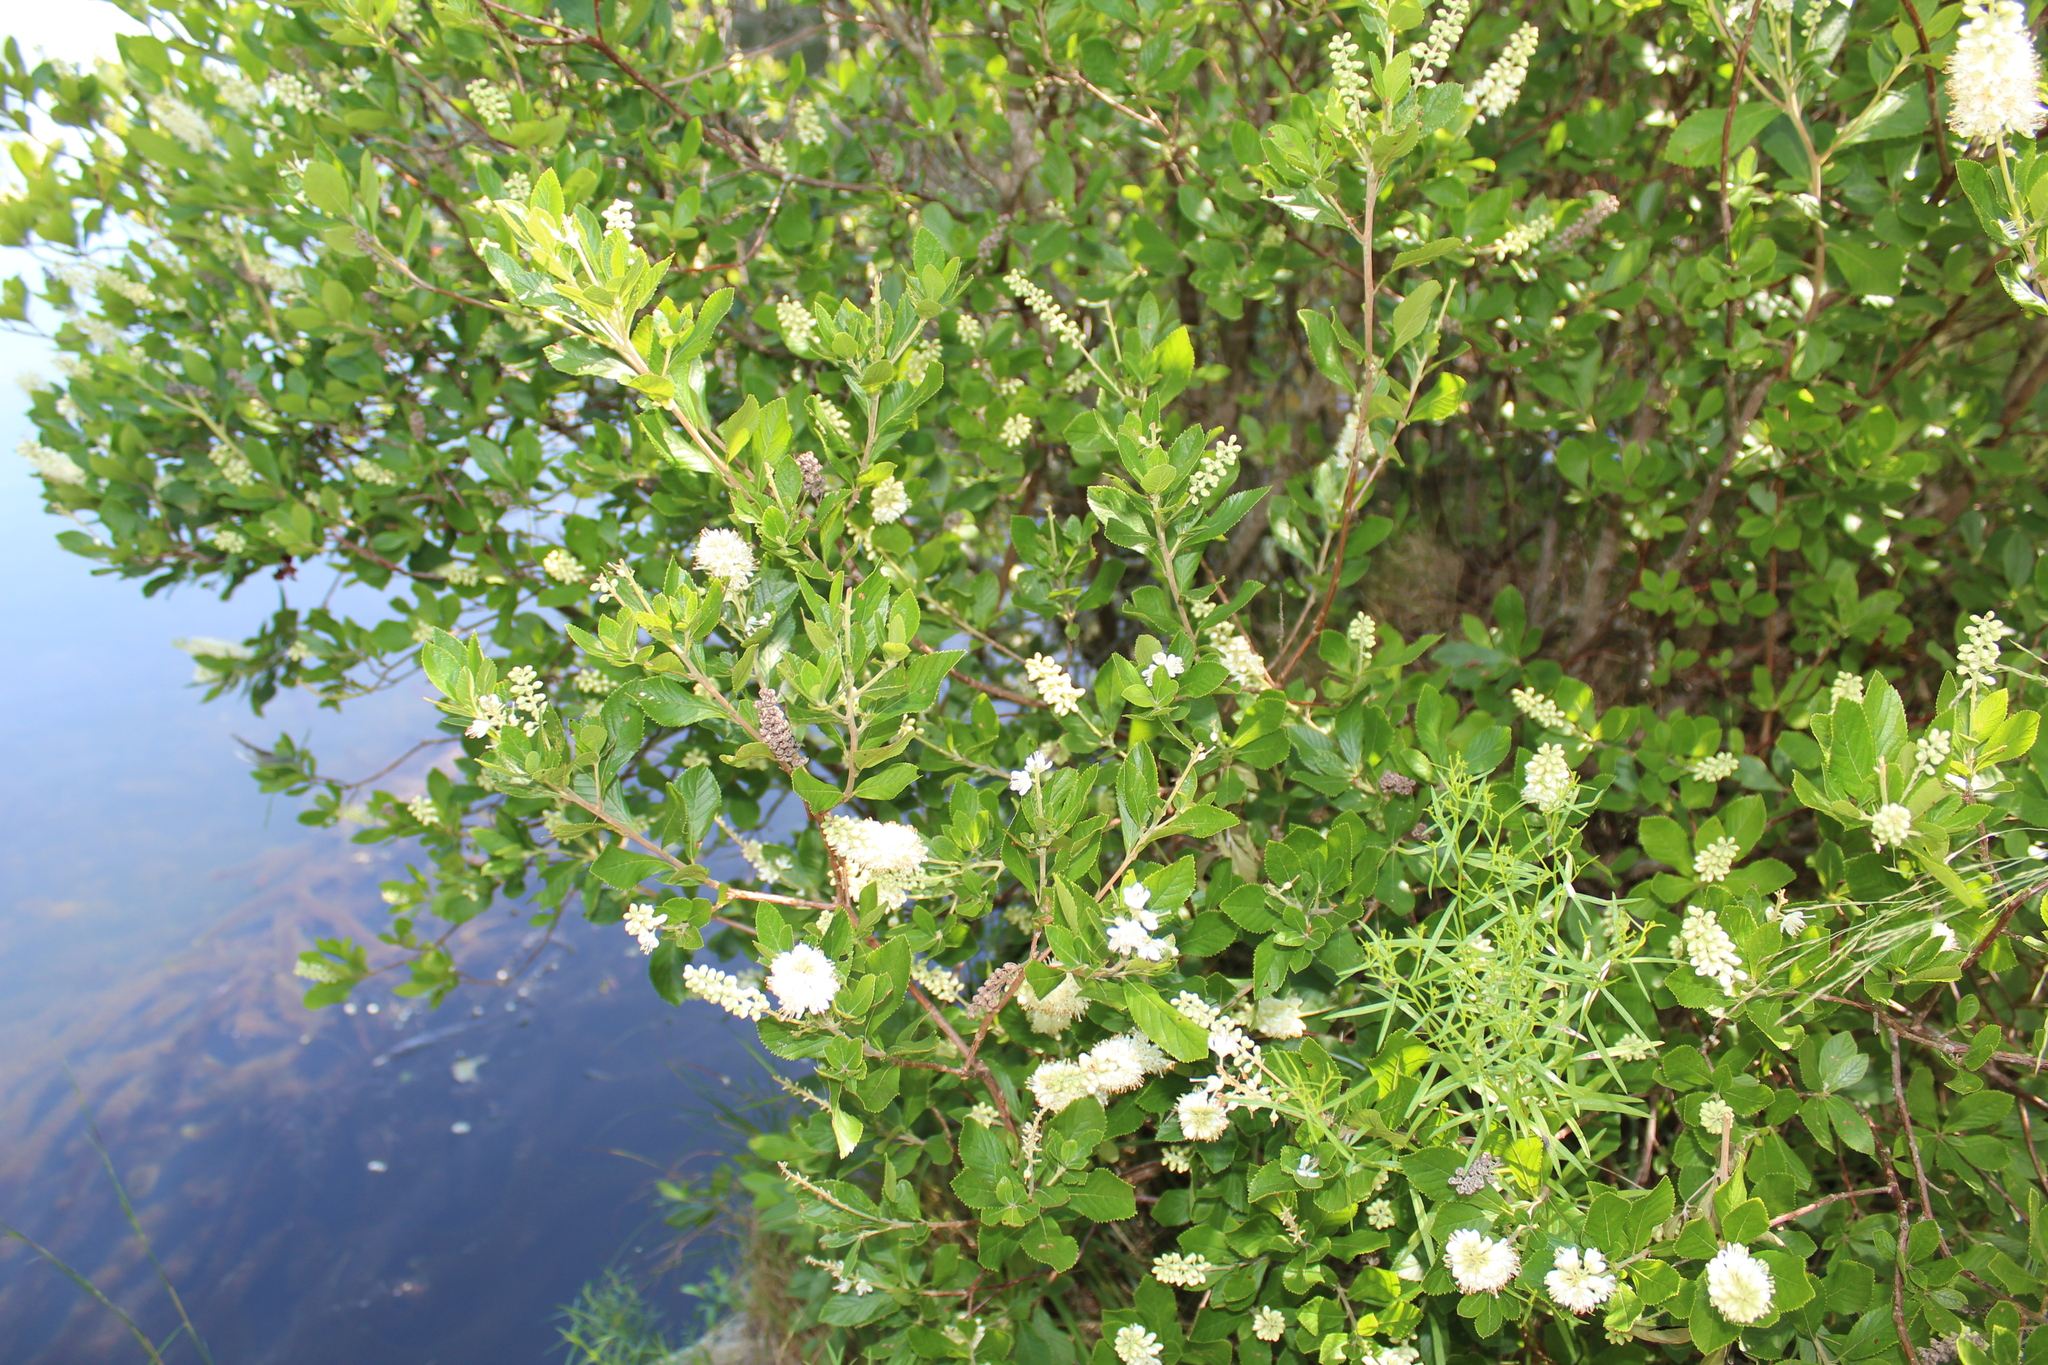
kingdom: Plantae
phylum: Tracheophyta
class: Magnoliopsida
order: Ericales
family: Clethraceae
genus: Clethra
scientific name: Clethra alnifolia
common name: Sweet pepperbush
